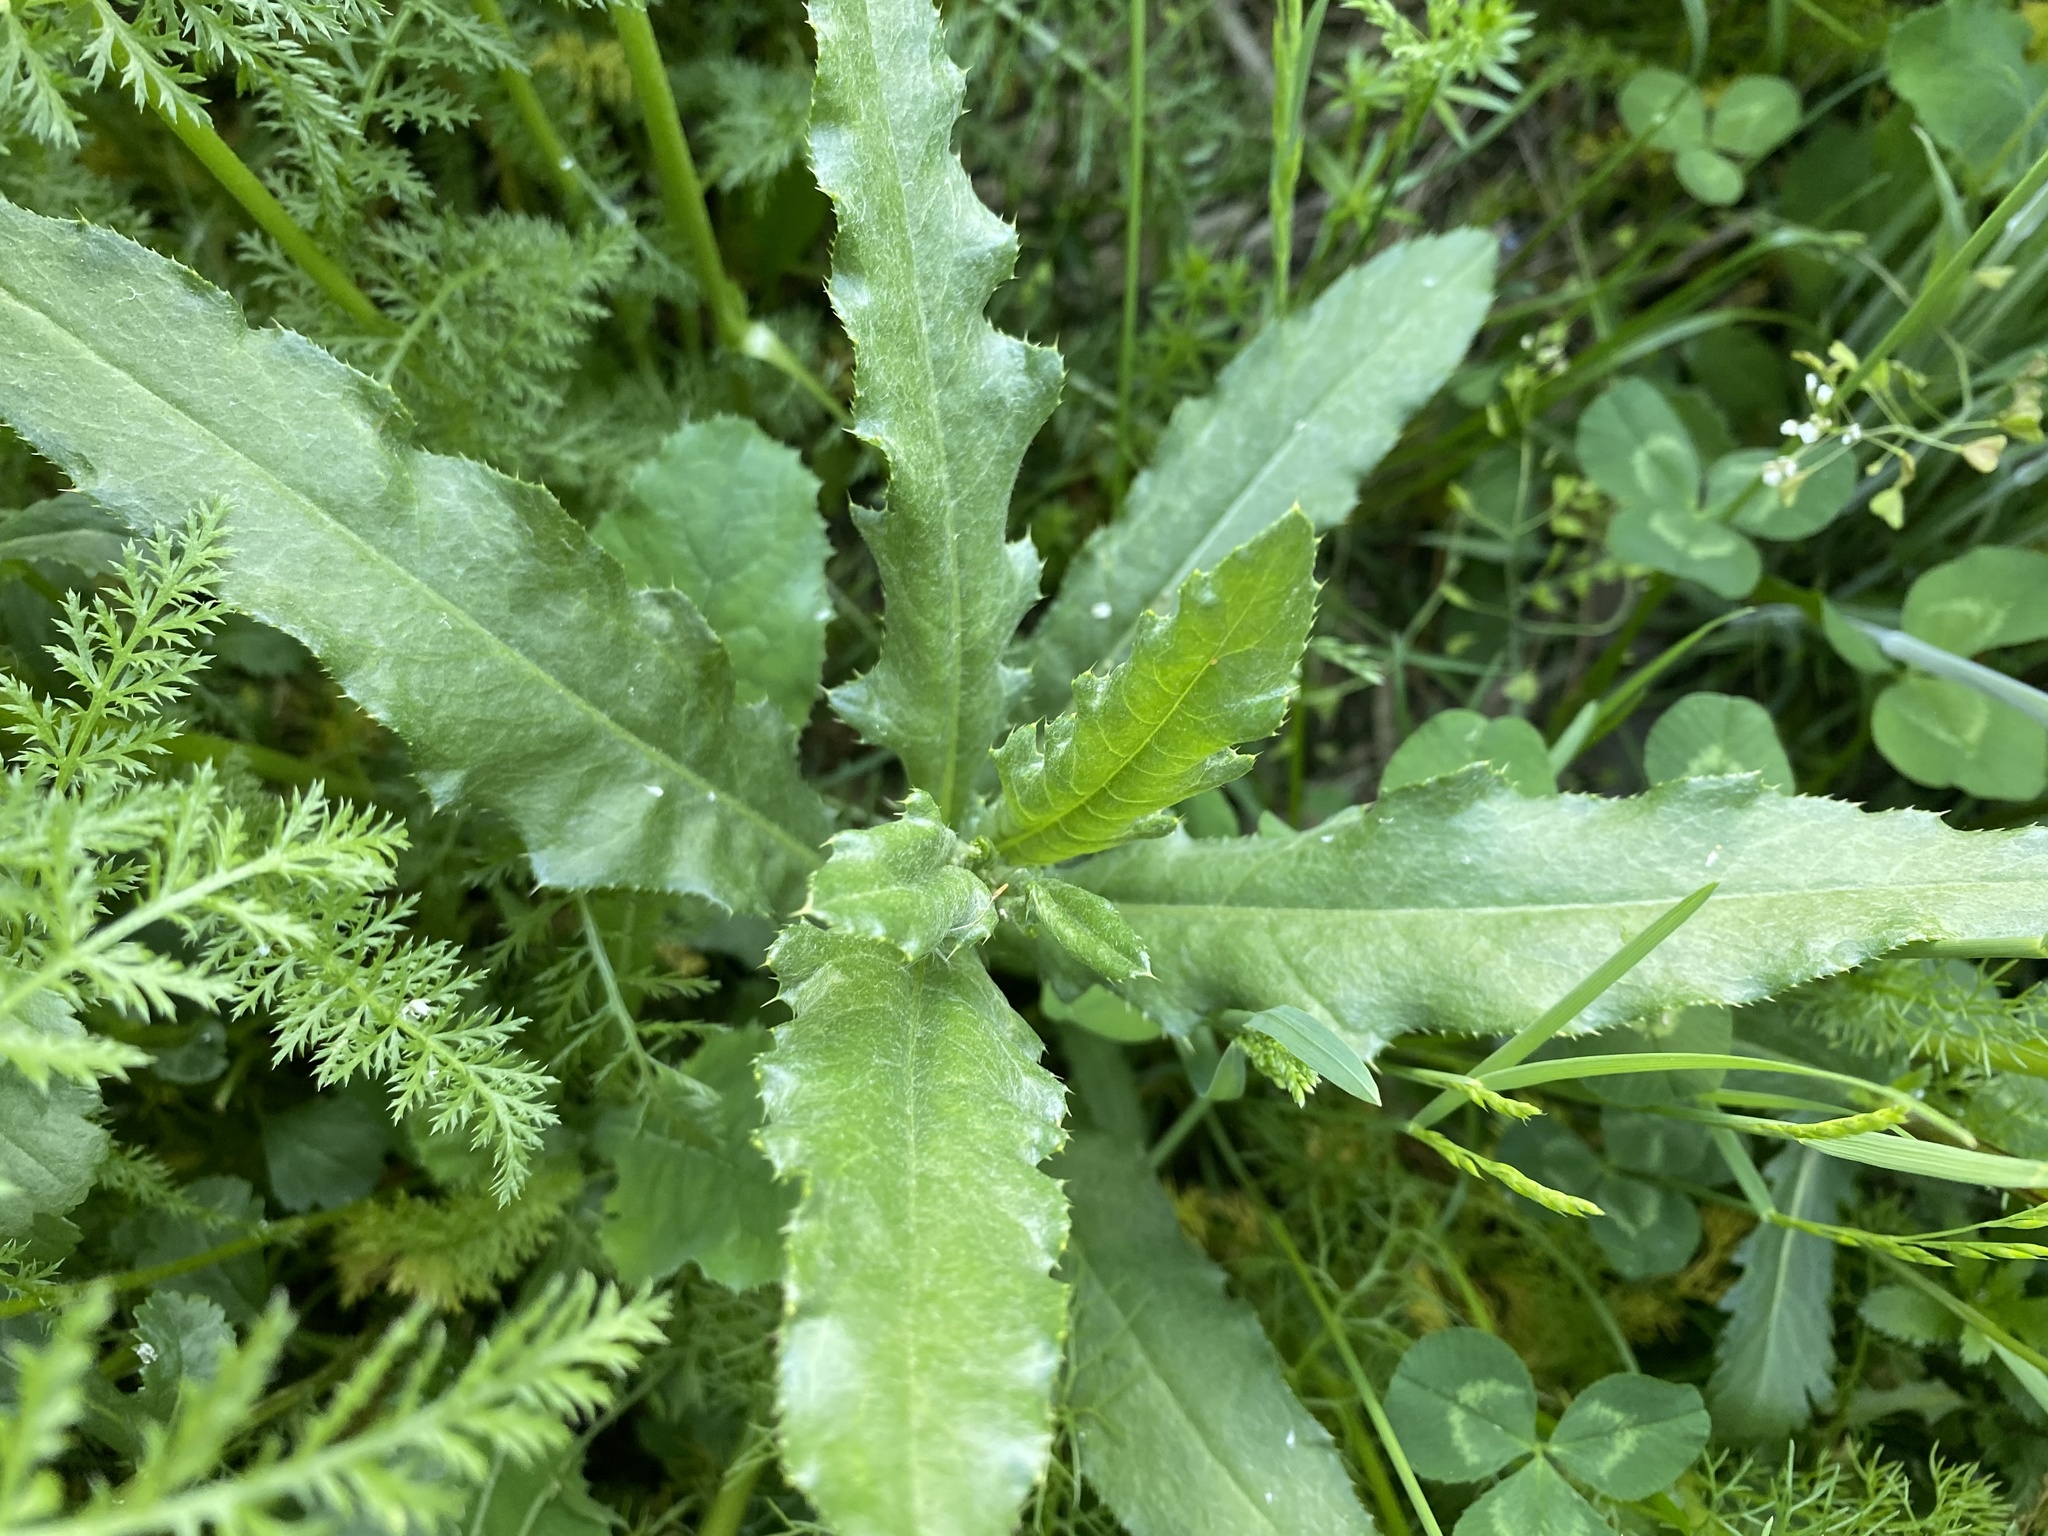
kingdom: Plantae
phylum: Tracheophyta
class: Magnoliopsida
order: Asterales
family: Asteraceae
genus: Cirsium
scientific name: Cirsium arvense
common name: Creeping thistle
